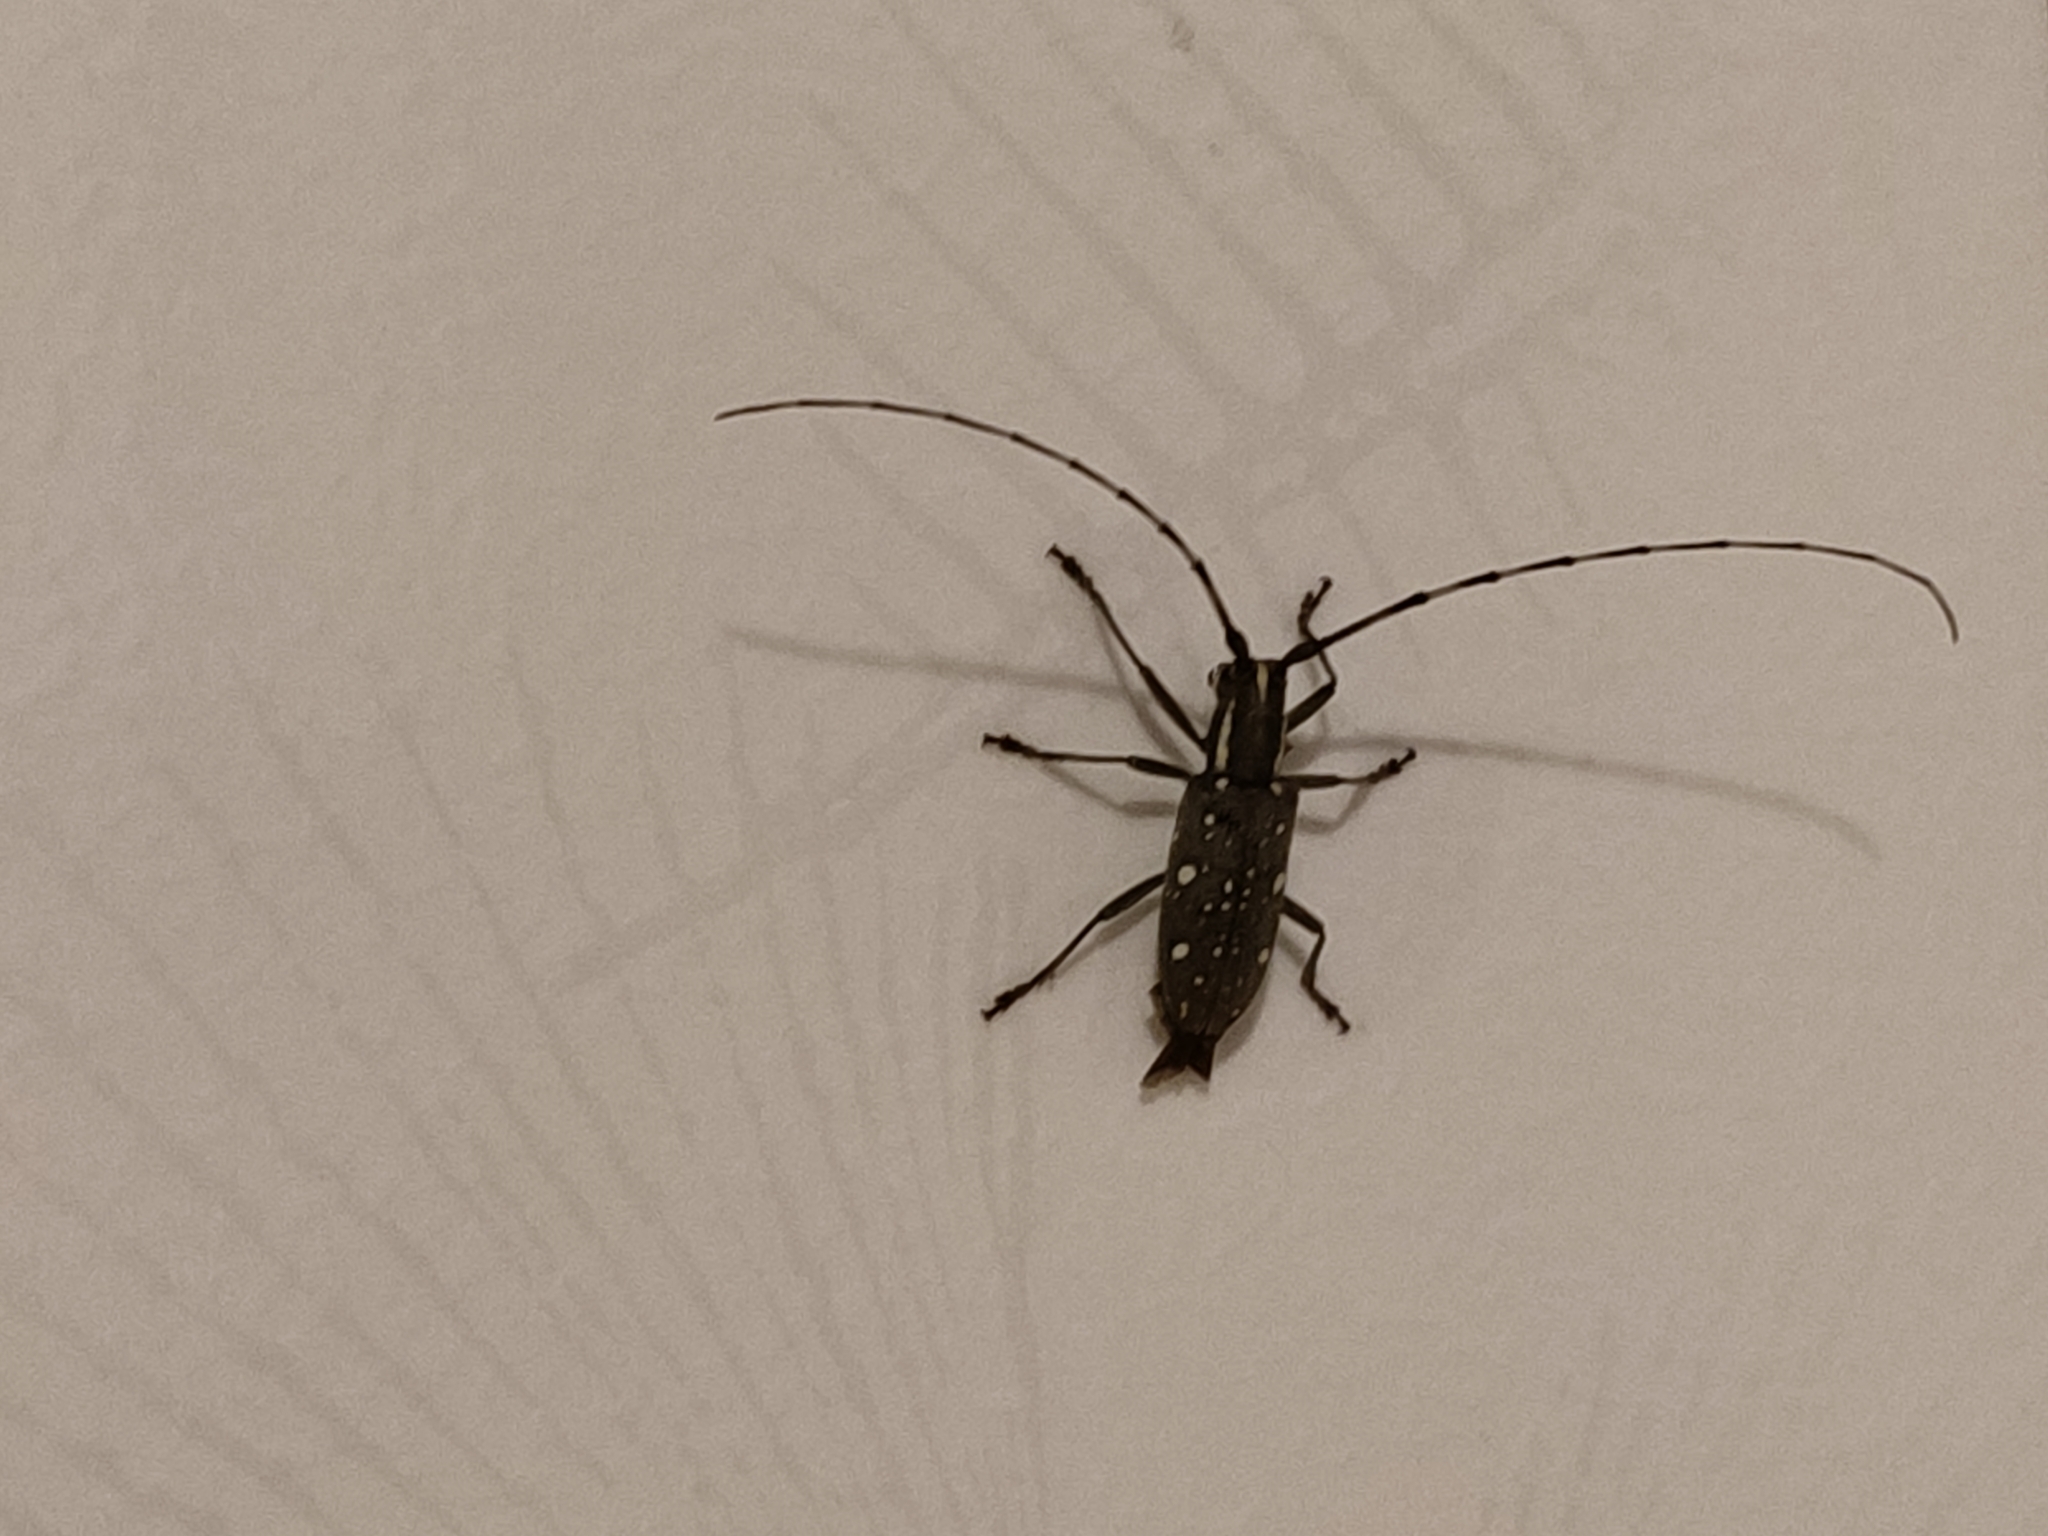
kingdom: Animalia
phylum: Arthropoda
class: Insecta
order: Coleoptera
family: Cerambycidae
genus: Psacothea
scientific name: Psacothea hilaris
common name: Yellow-spotted longicorn beetle
